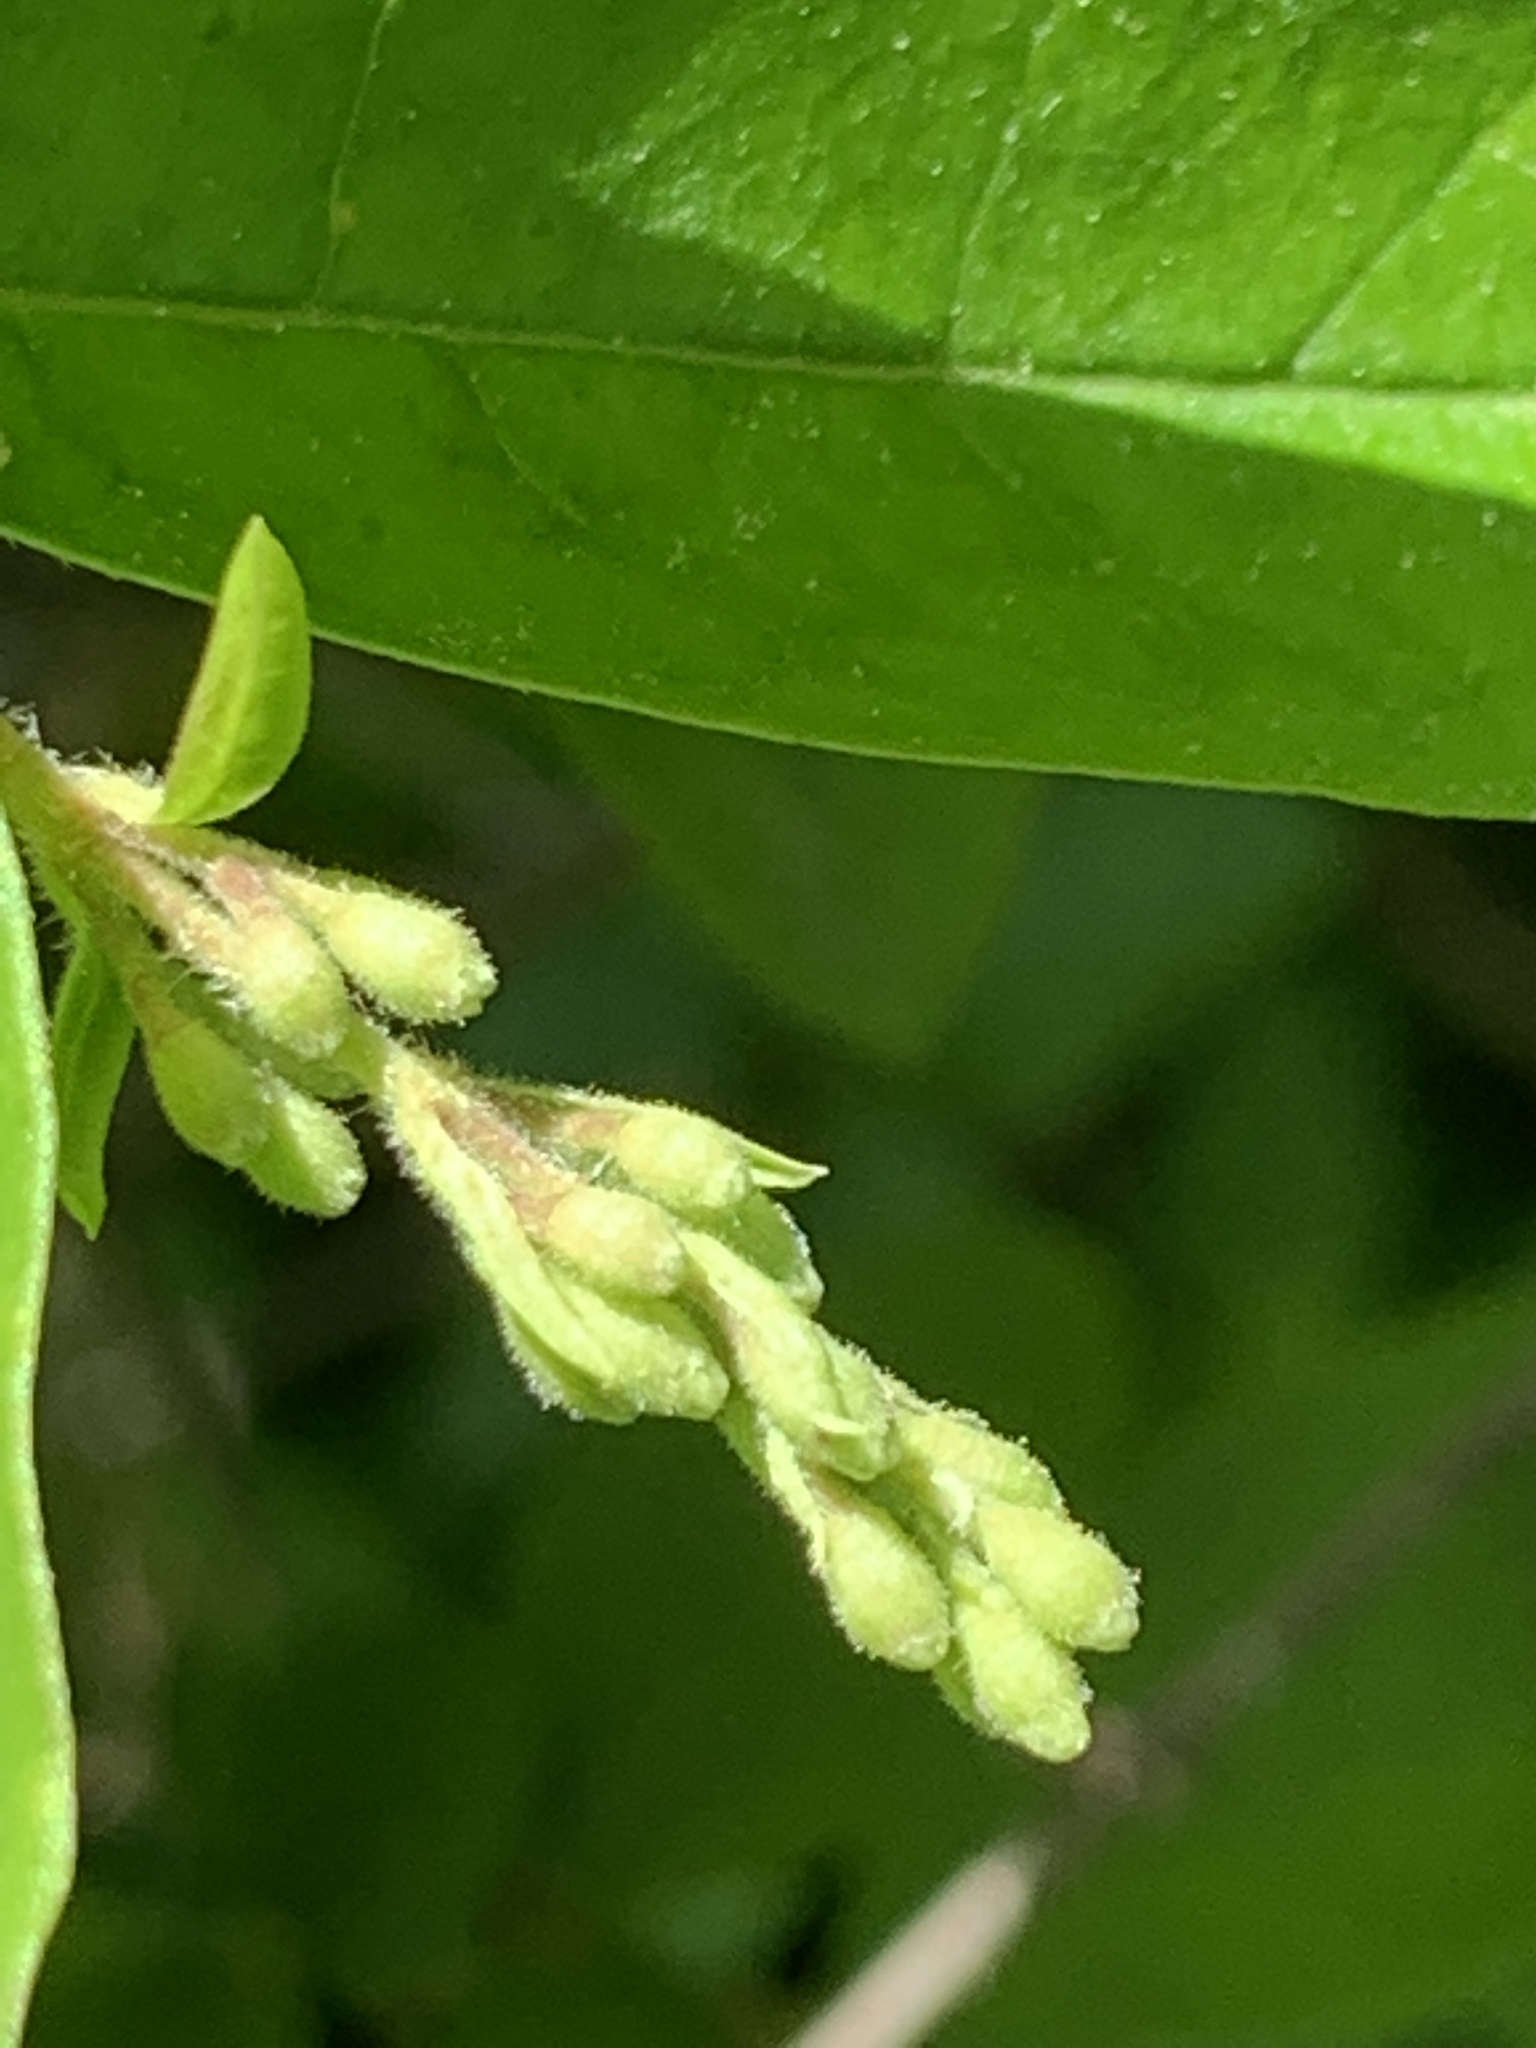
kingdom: Plantae
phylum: Tracheophyta
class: Magnoliopsida
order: Lamiales
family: Oleaceae
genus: Ligustrum
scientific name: Ligustrum obtusifolium
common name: Border privet
